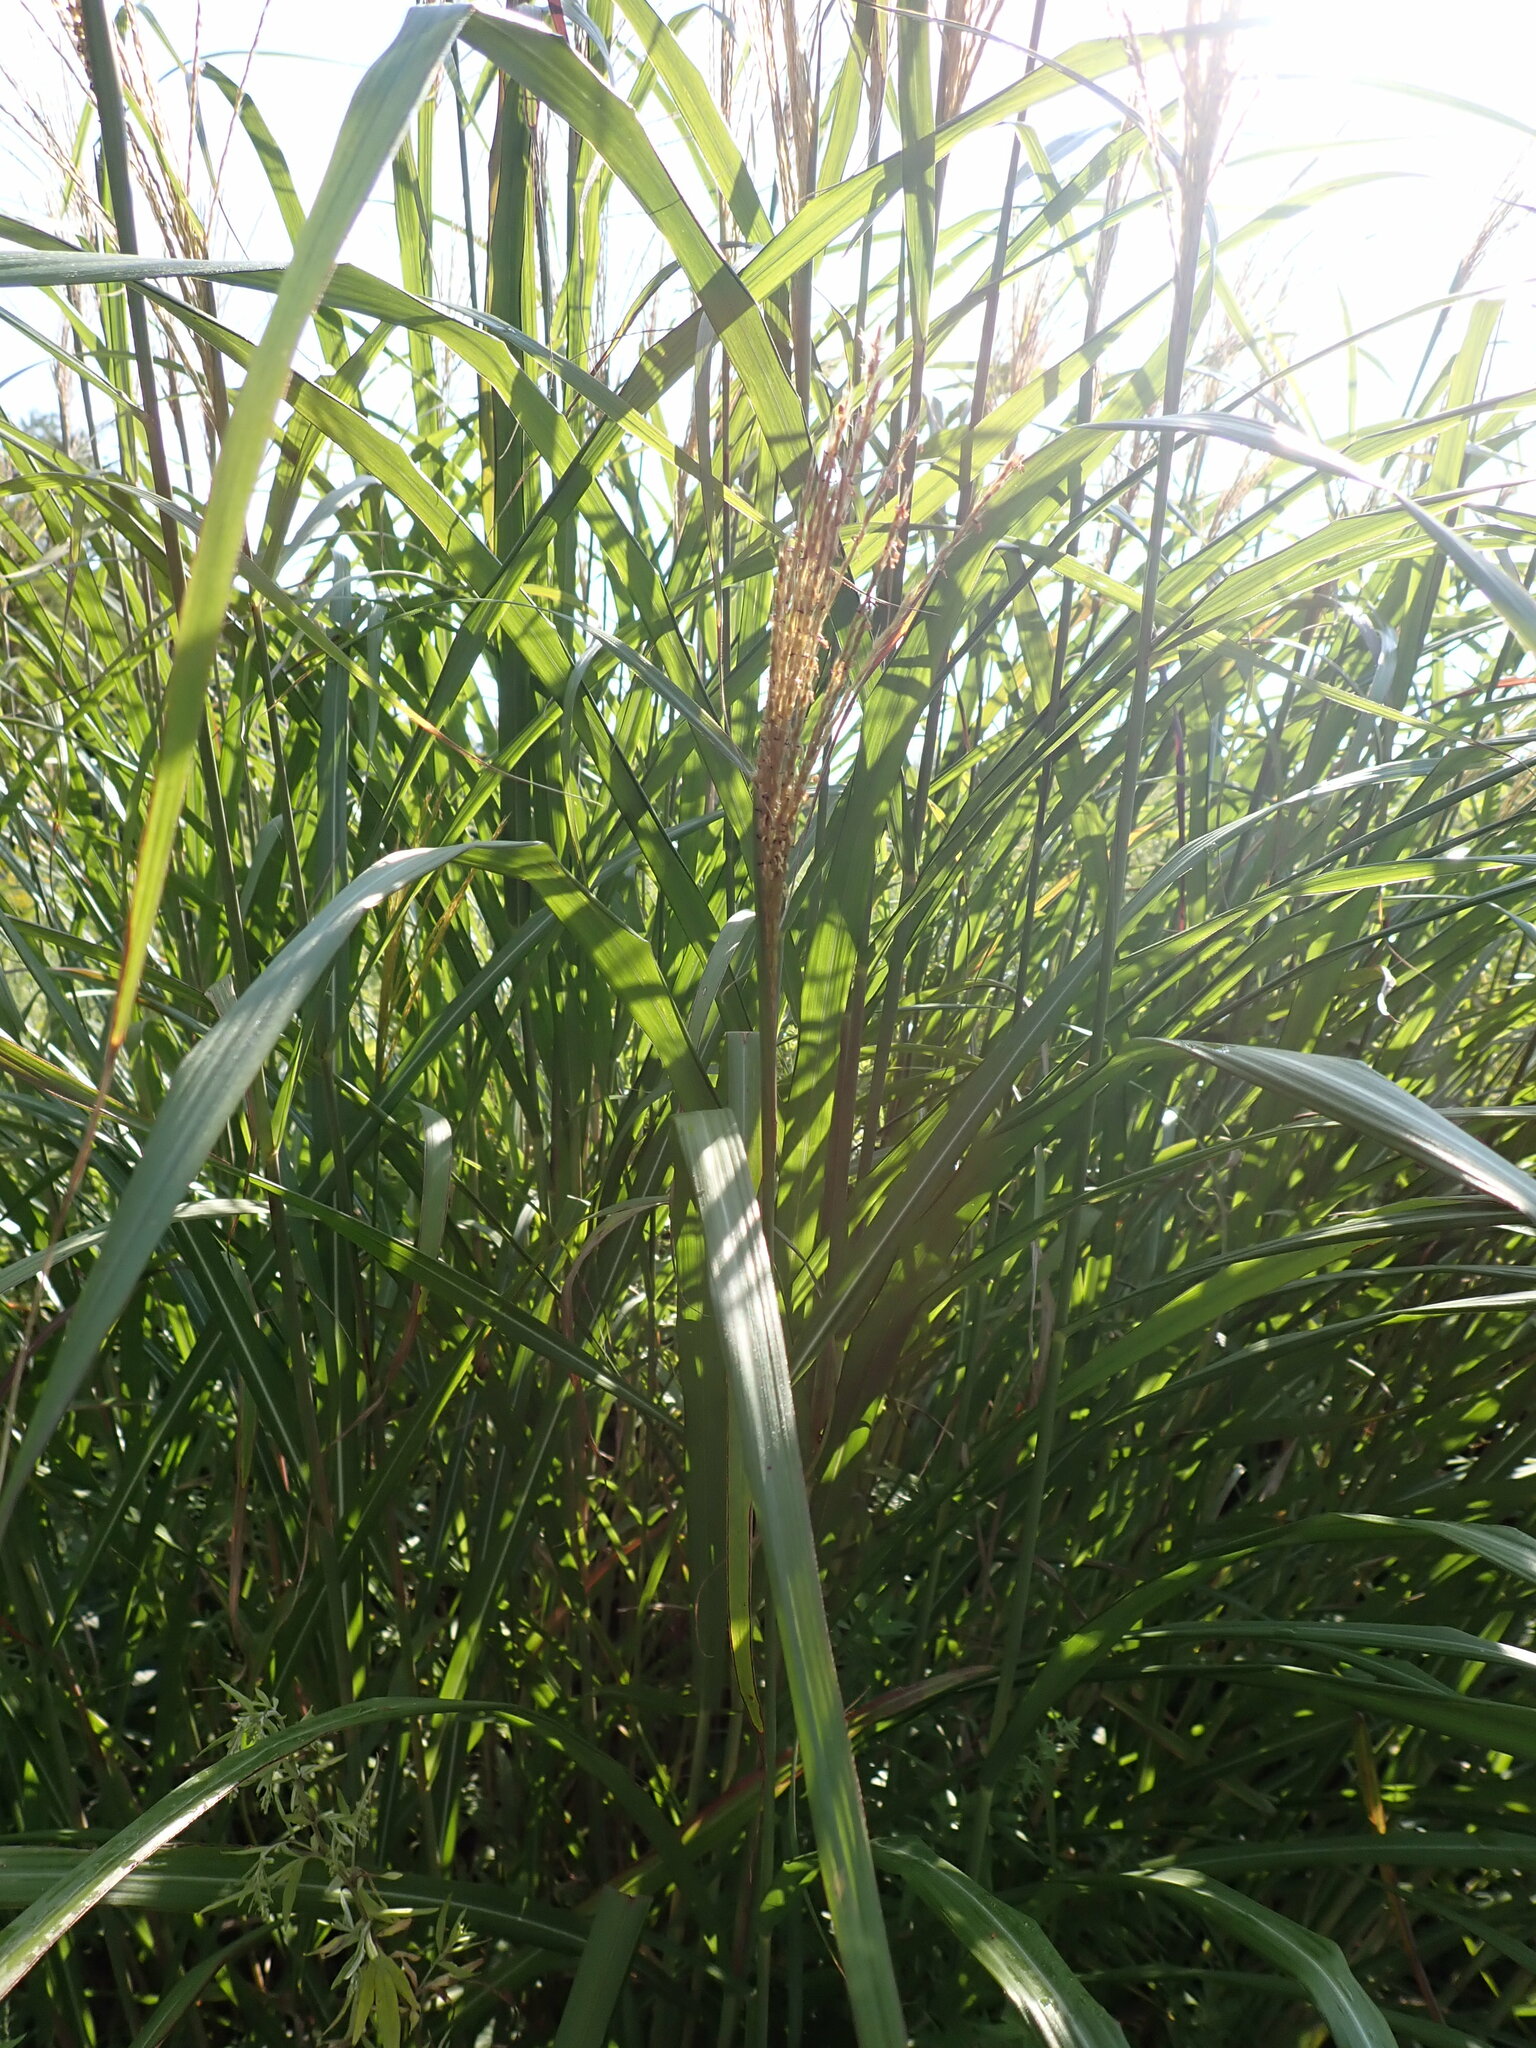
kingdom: Plantae
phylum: Tracheophyta
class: Liliopsida
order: Poales
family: Poaceae
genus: Miscanthus
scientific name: Miscanthus sinensis
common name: Chinese silvergrass
